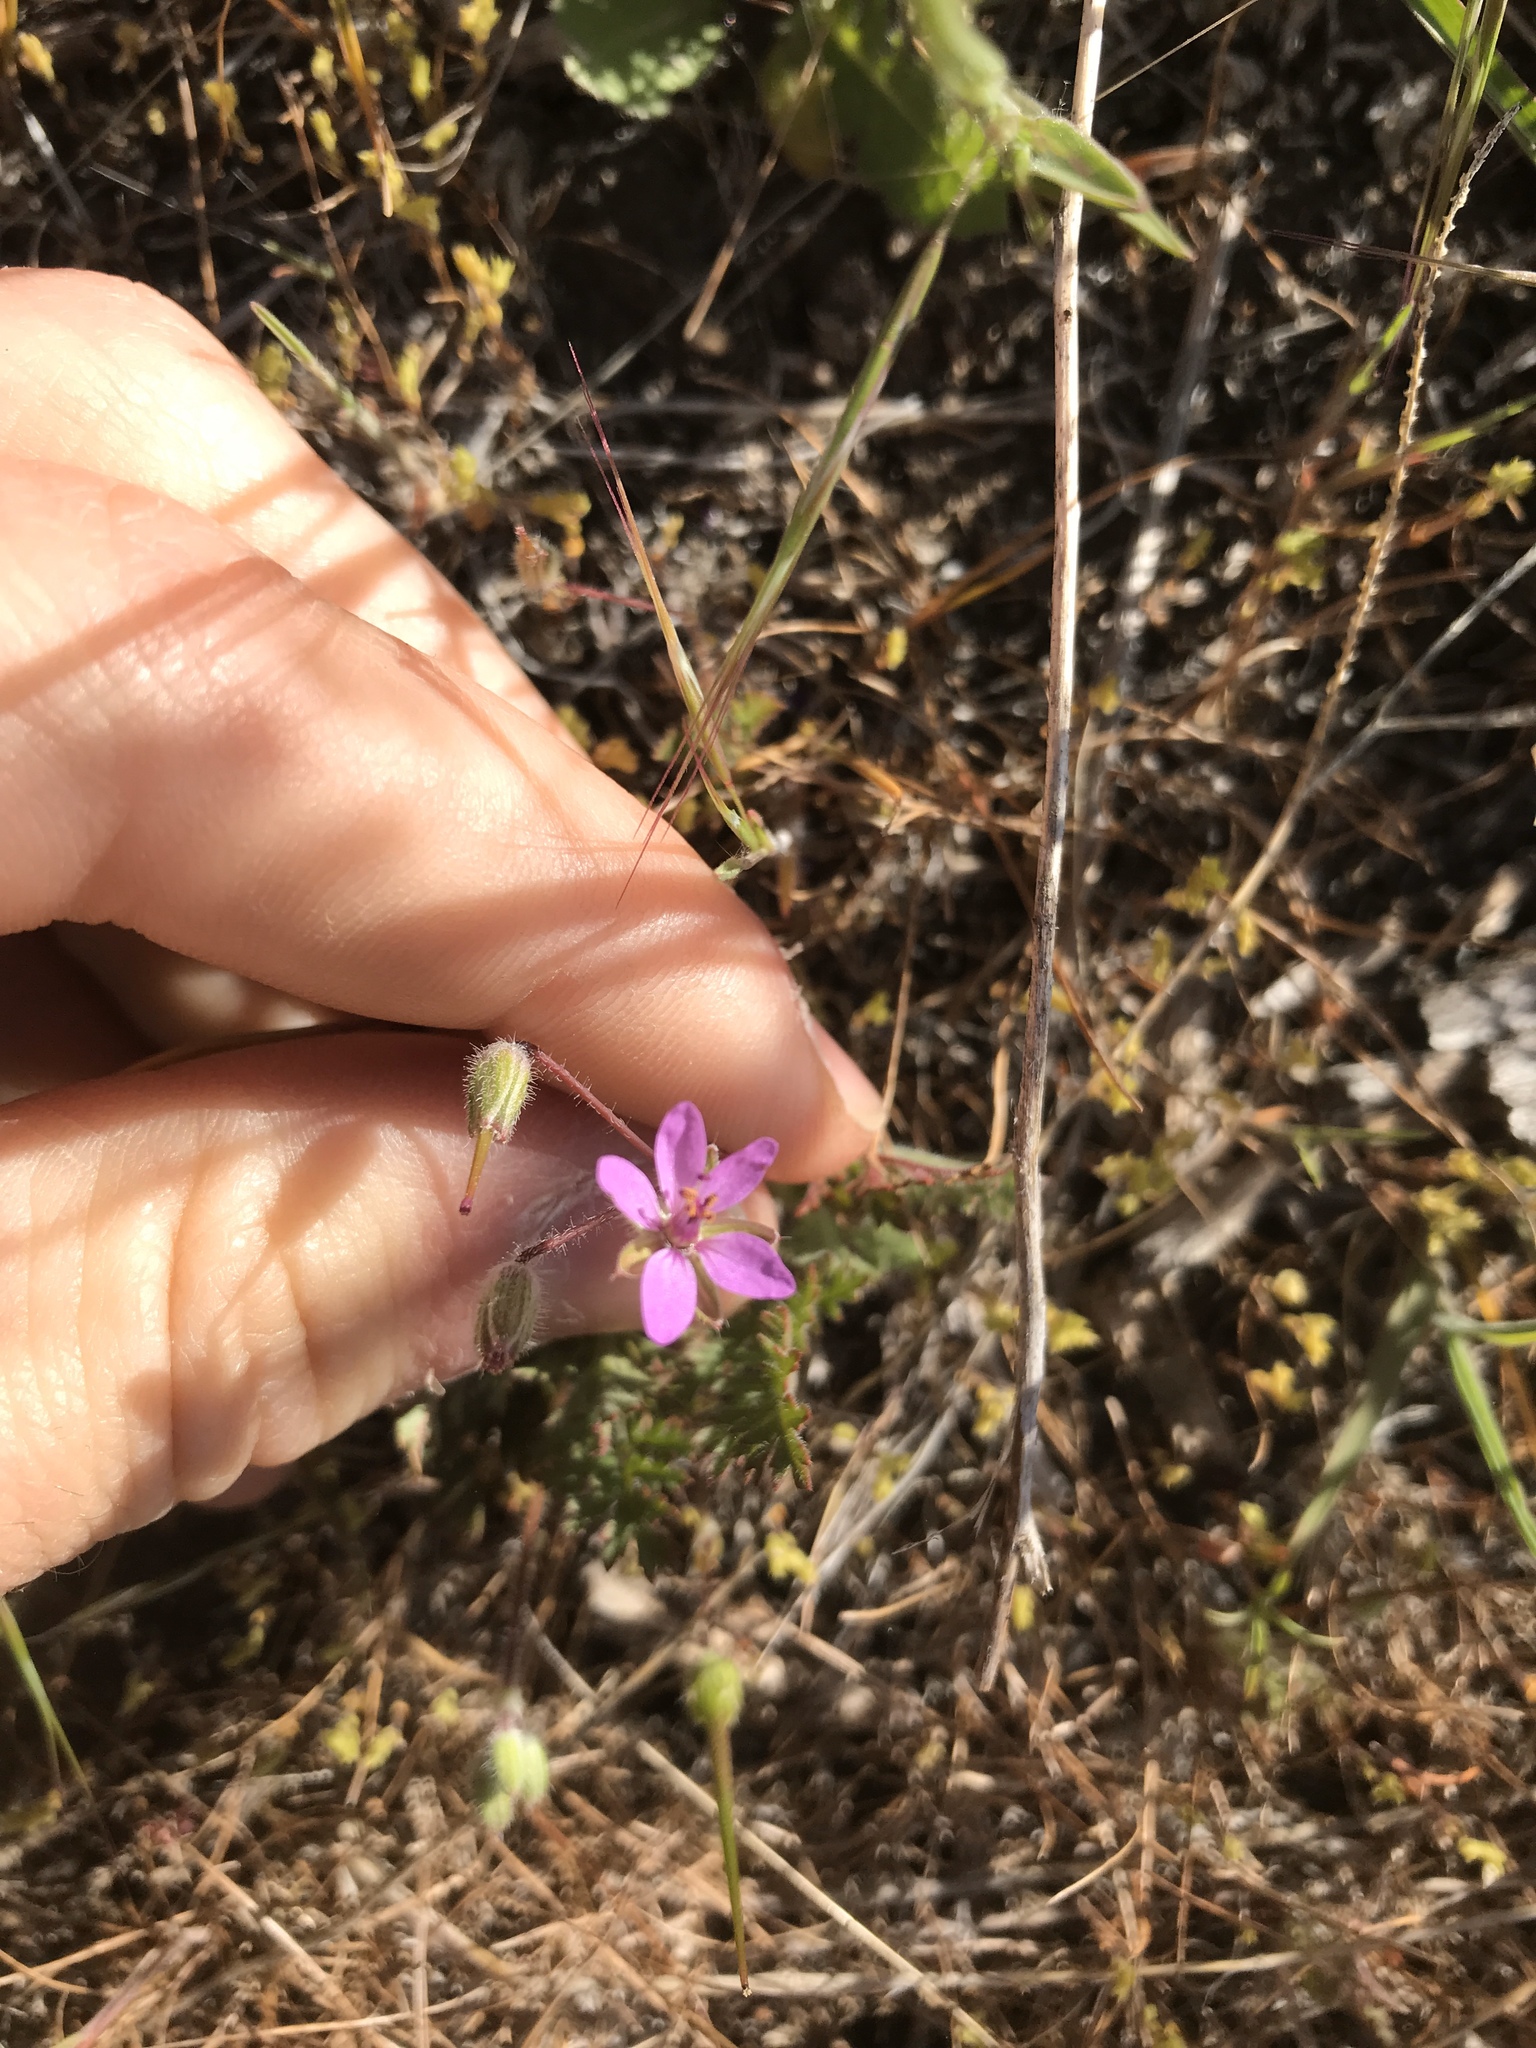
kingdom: Plantae
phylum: Tracheophyta
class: Magnoliopsida
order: Geraniales
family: Geraniaceae
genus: Erodium
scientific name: Erodium cicutarium
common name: Common stork's-bill
